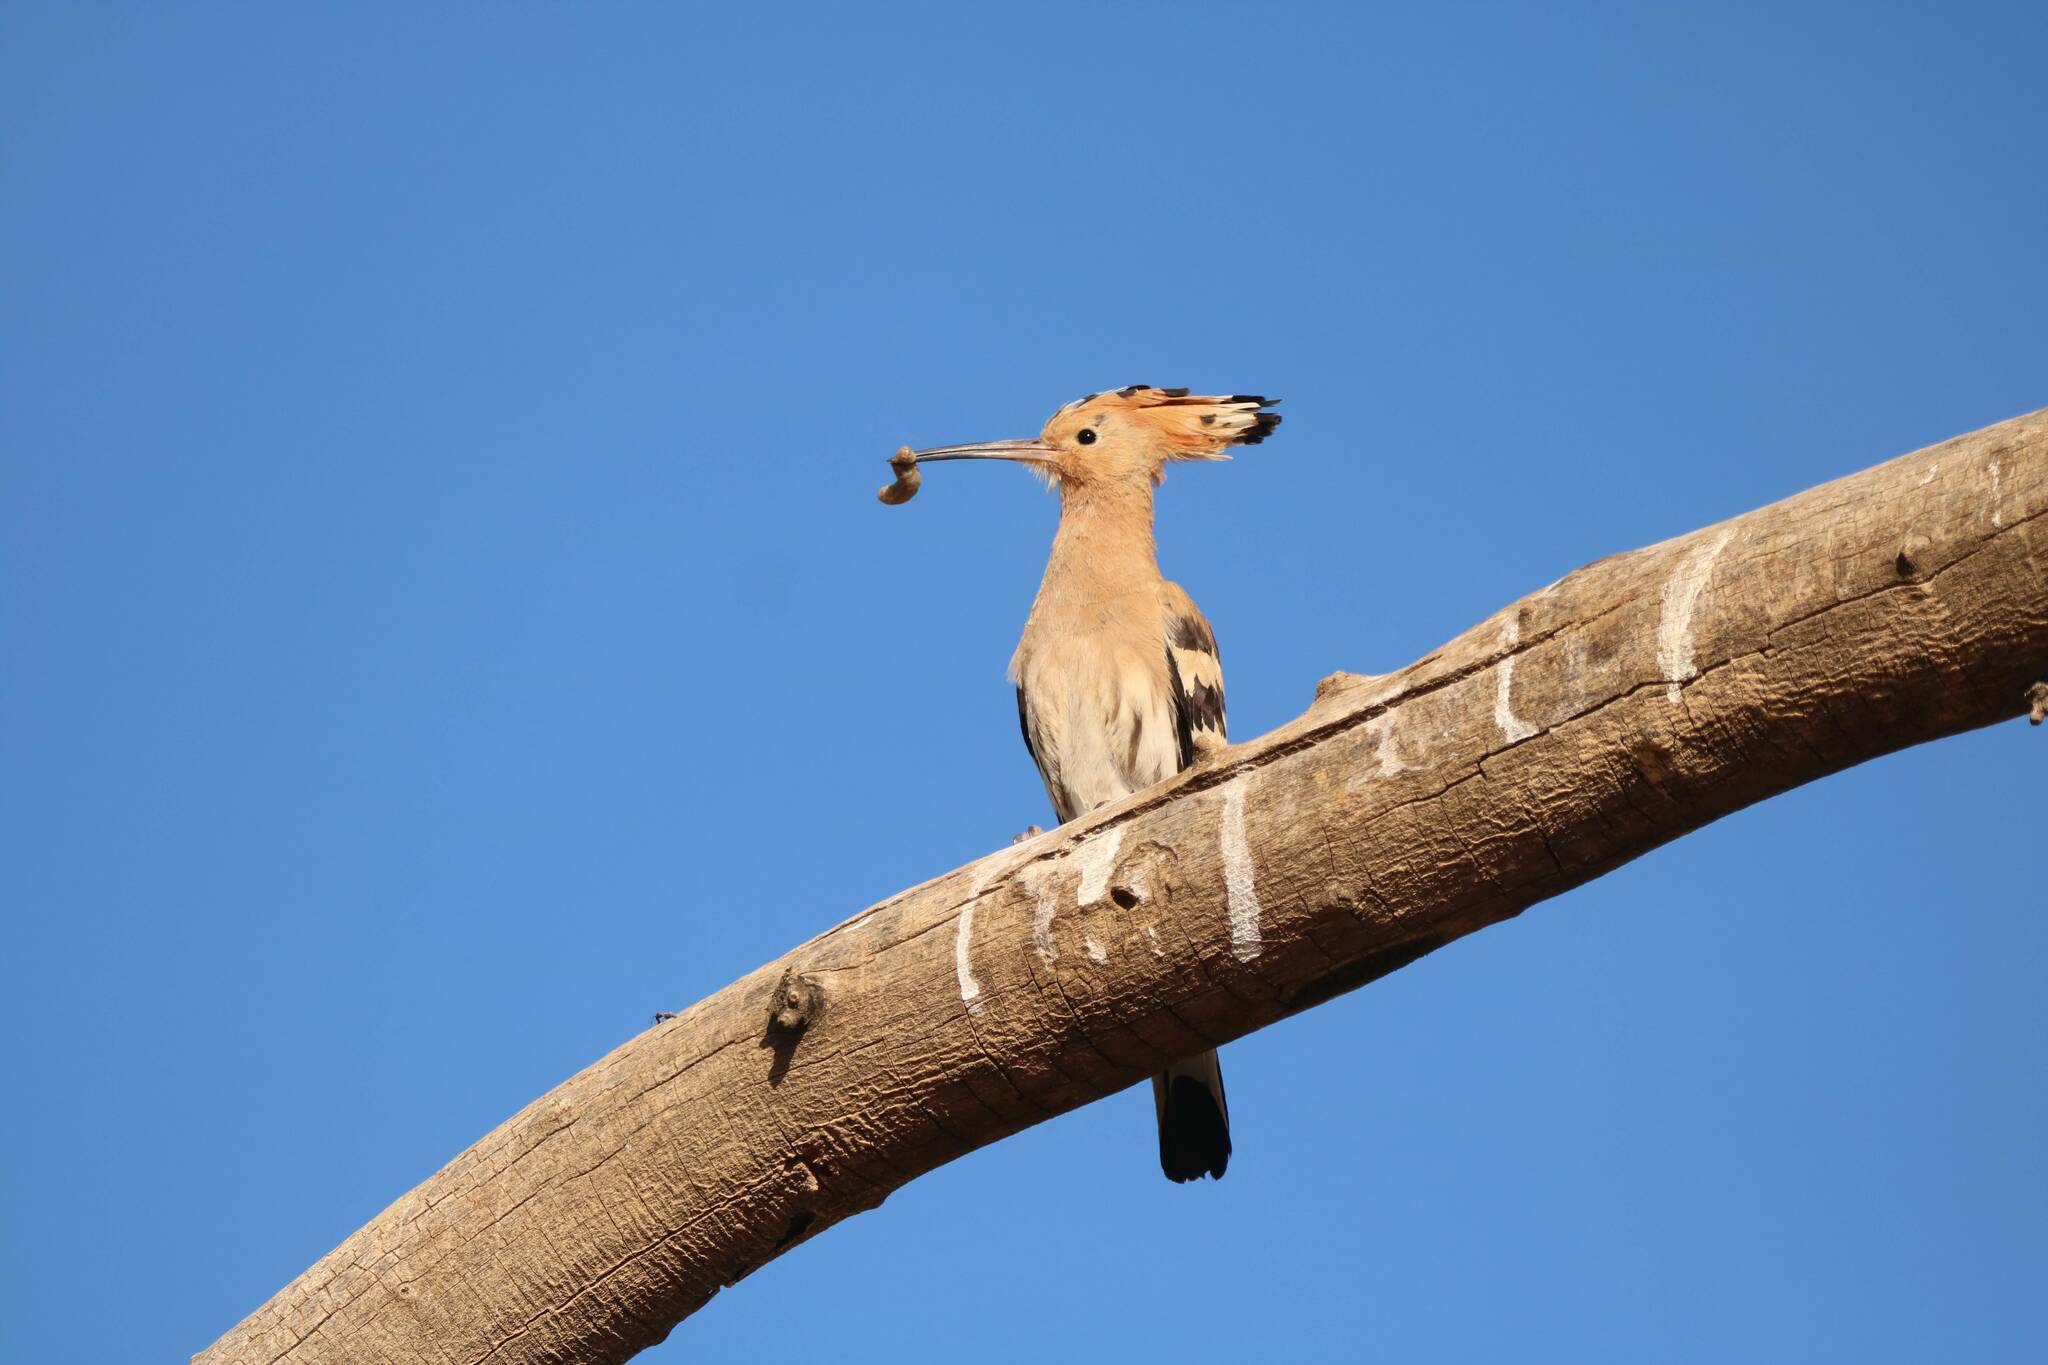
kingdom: Animalia
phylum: Chordata
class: Aves
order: Bucerotiformes
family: Upupidae
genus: Upupa
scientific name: Upupa epops
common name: Eurasian hoopoe
